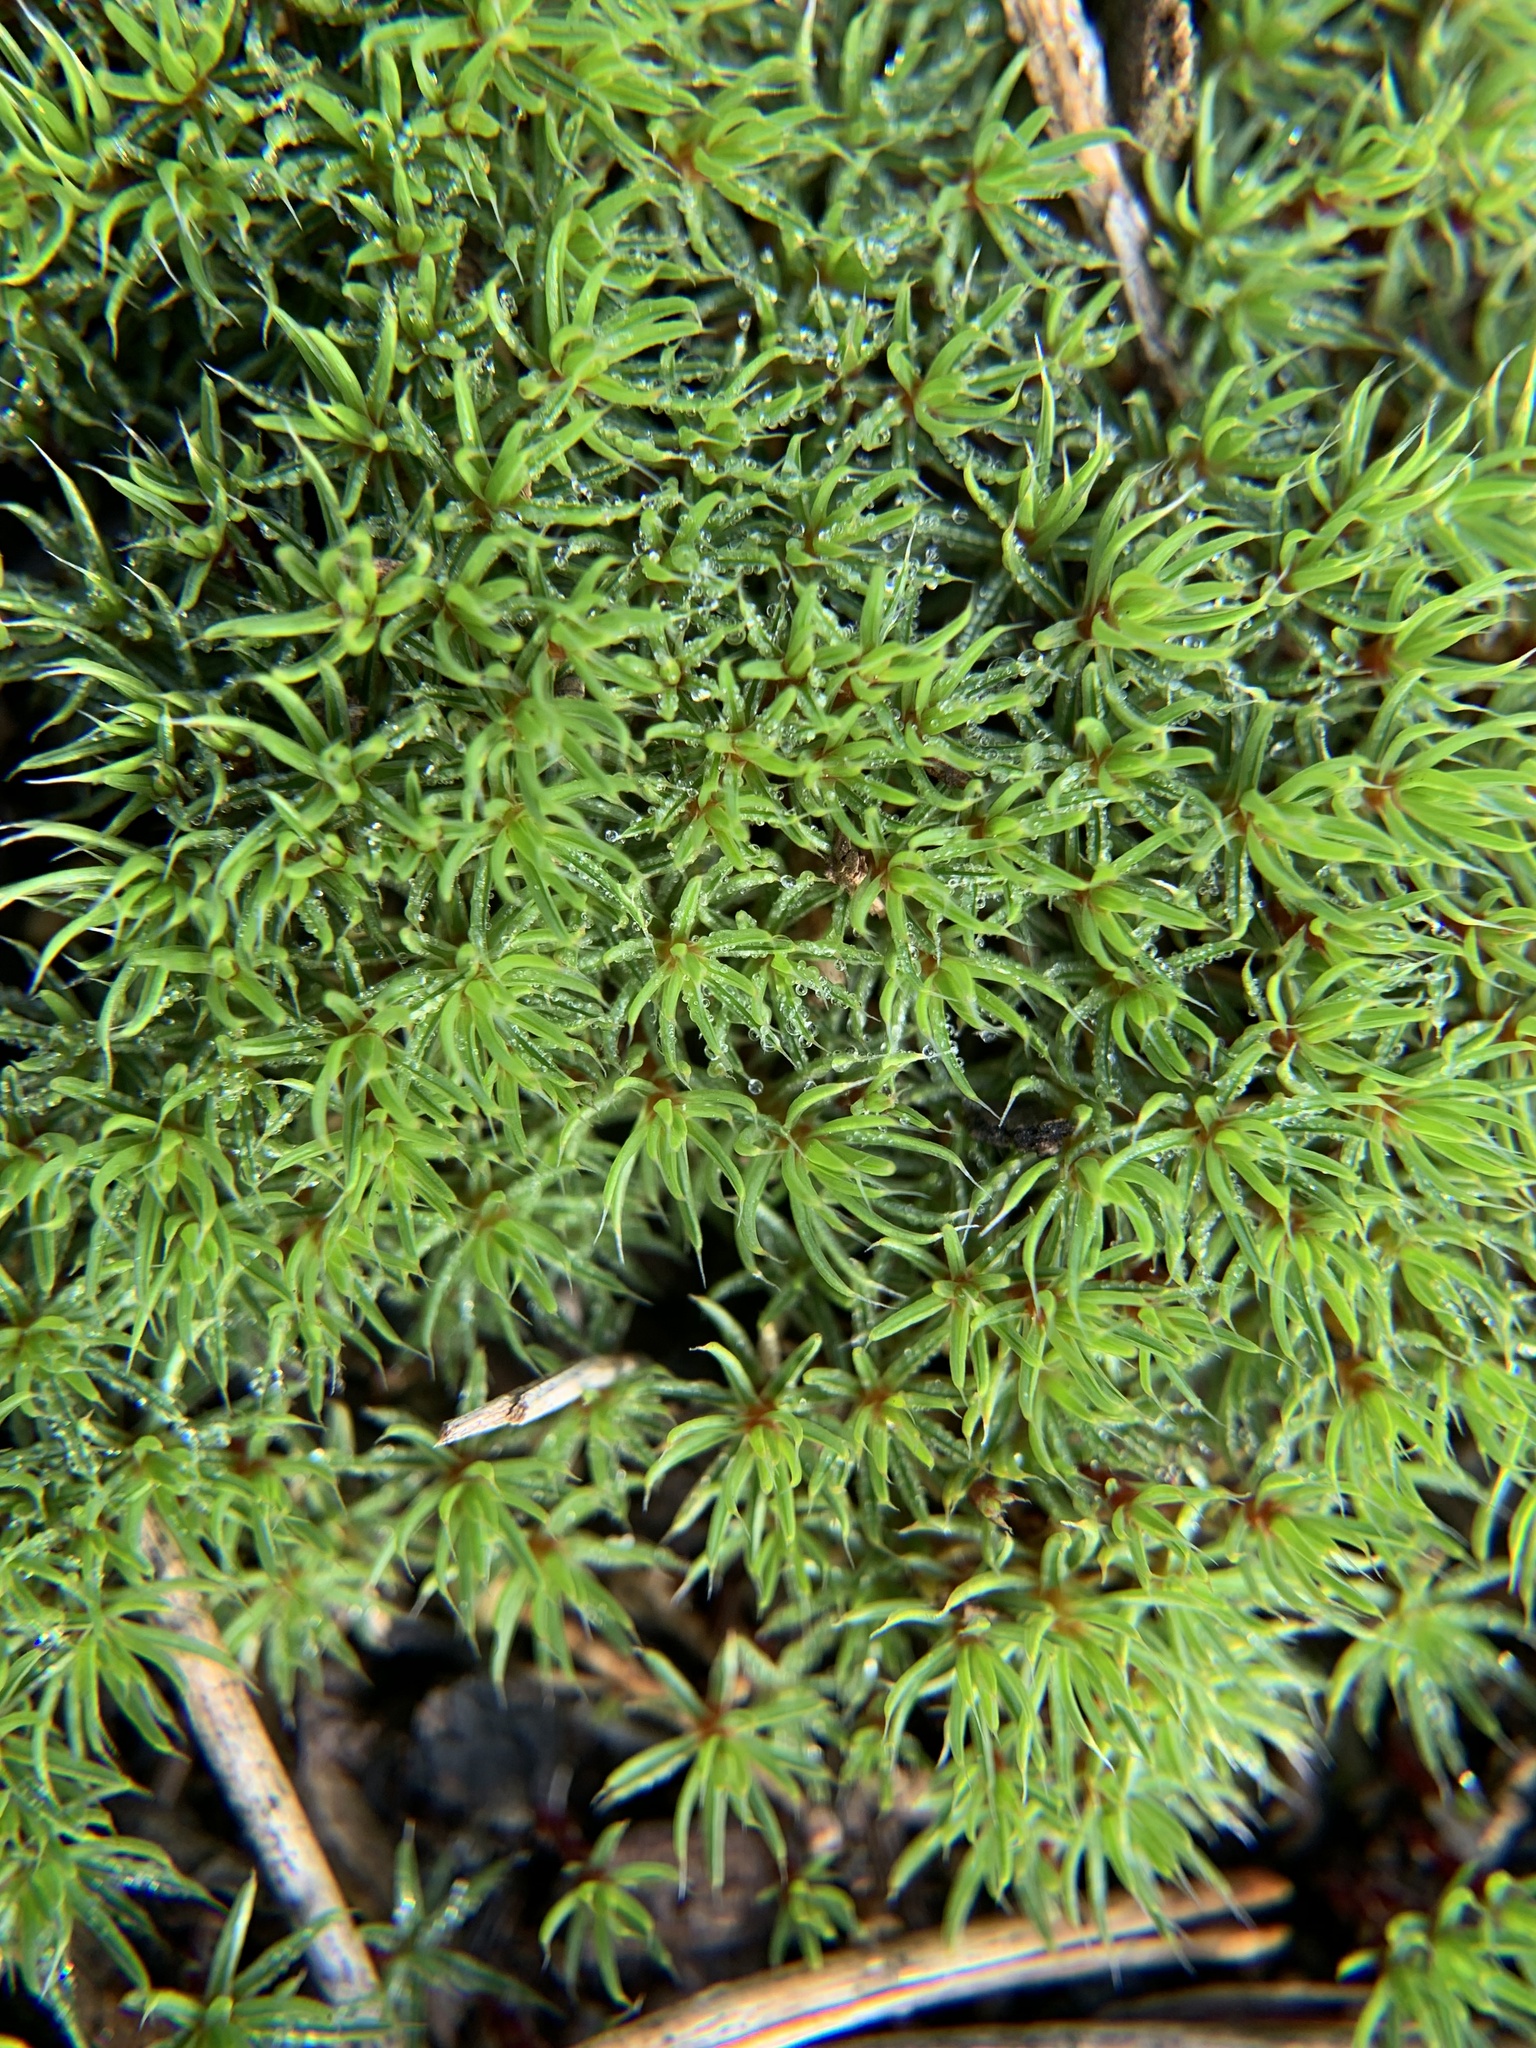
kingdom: Plantae
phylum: Bryophyta
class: Polytrichopsida
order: Polytrichales
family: Polytrichaceae
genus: Polytrichum
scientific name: Polytrichum piliferum
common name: Bristly haircap
